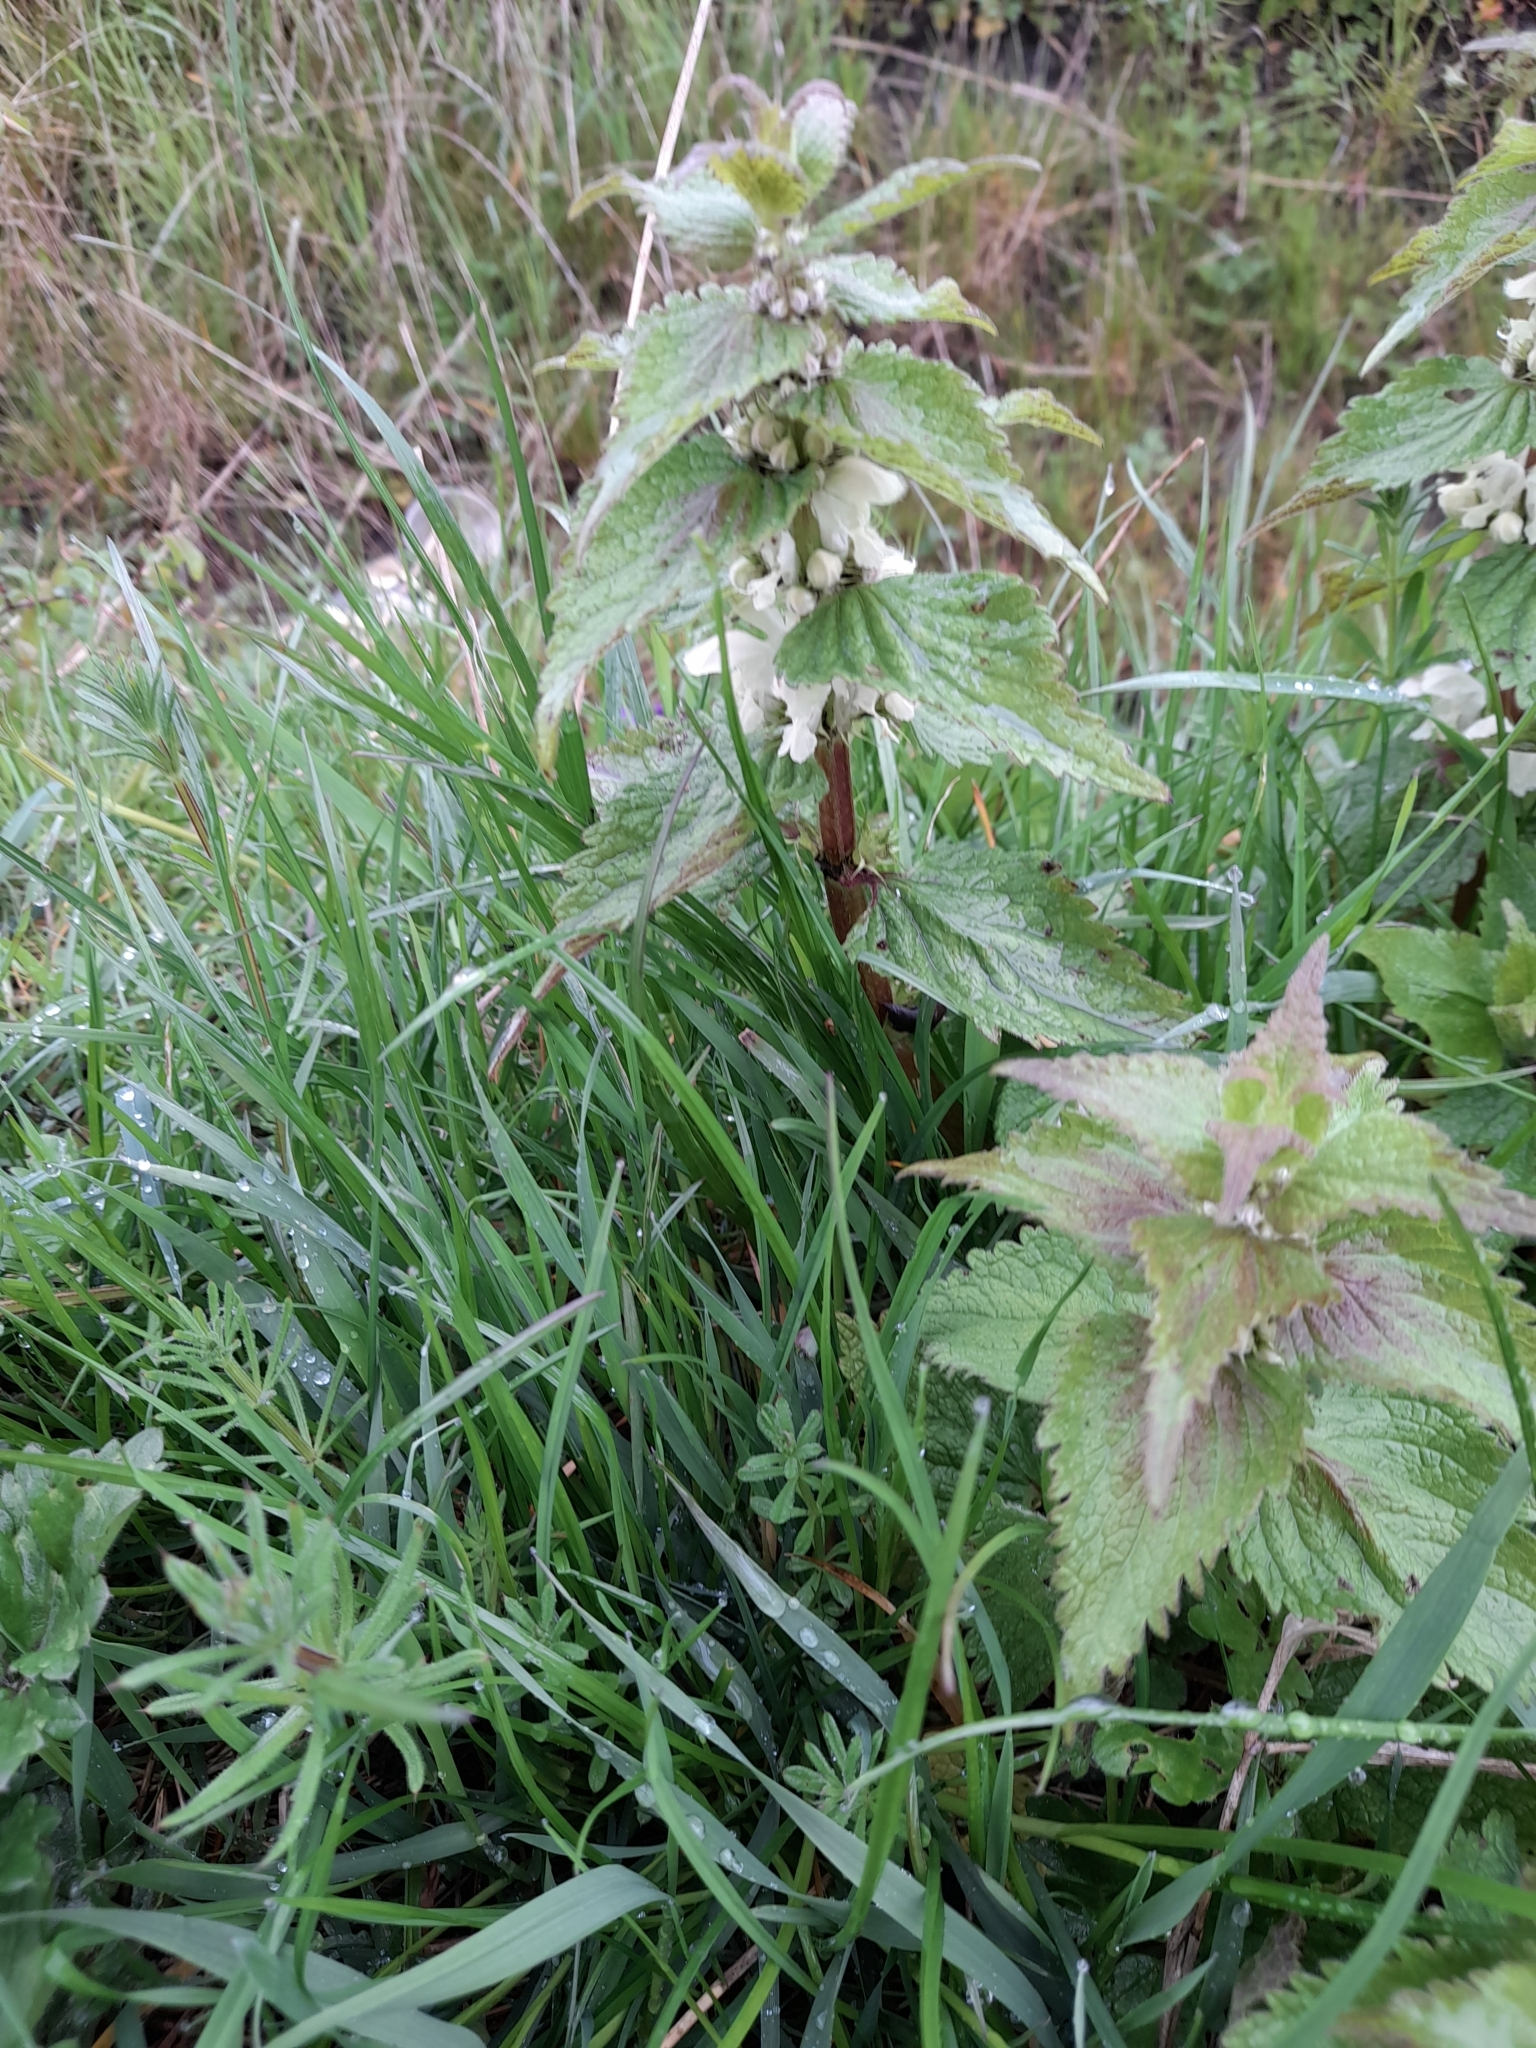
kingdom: Plantae
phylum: Tracheophyta
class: Magnoliopsida
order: Lamiales
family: Lamiaceae
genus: Lamium
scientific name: Lamium album
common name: White dead-nettle
